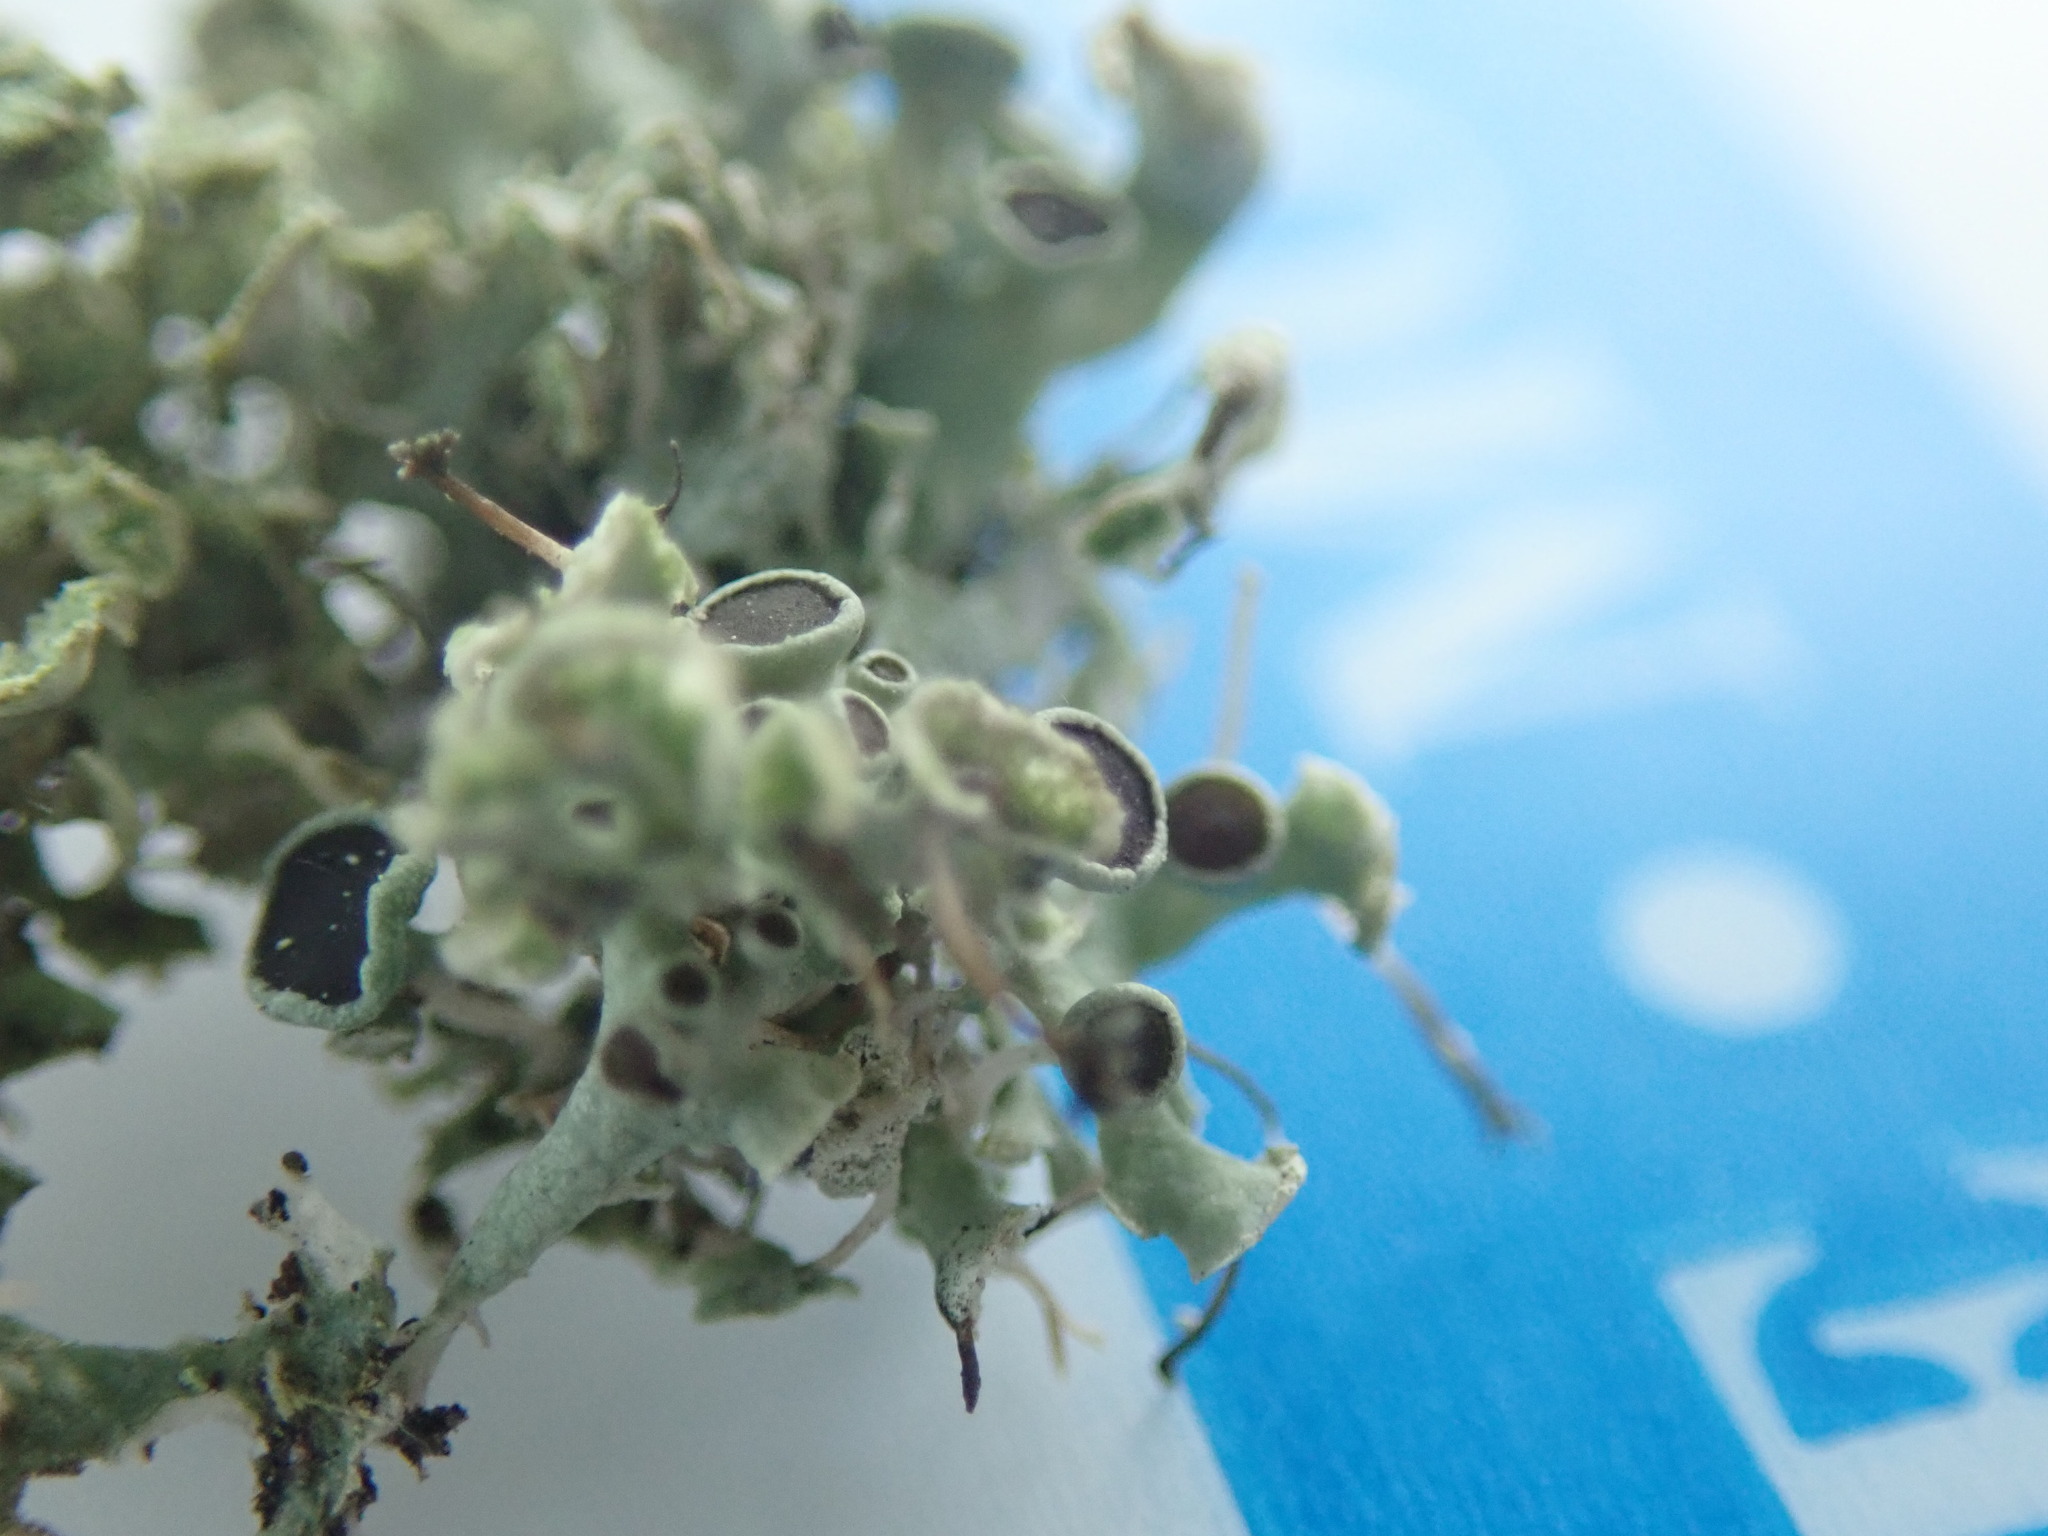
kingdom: Fungi
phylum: Ascomycota
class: Lecanoromycetes
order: Caliciales
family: Physciaceae
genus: Physcia
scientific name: Physcia adscendens
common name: Hooded rosette lichen
